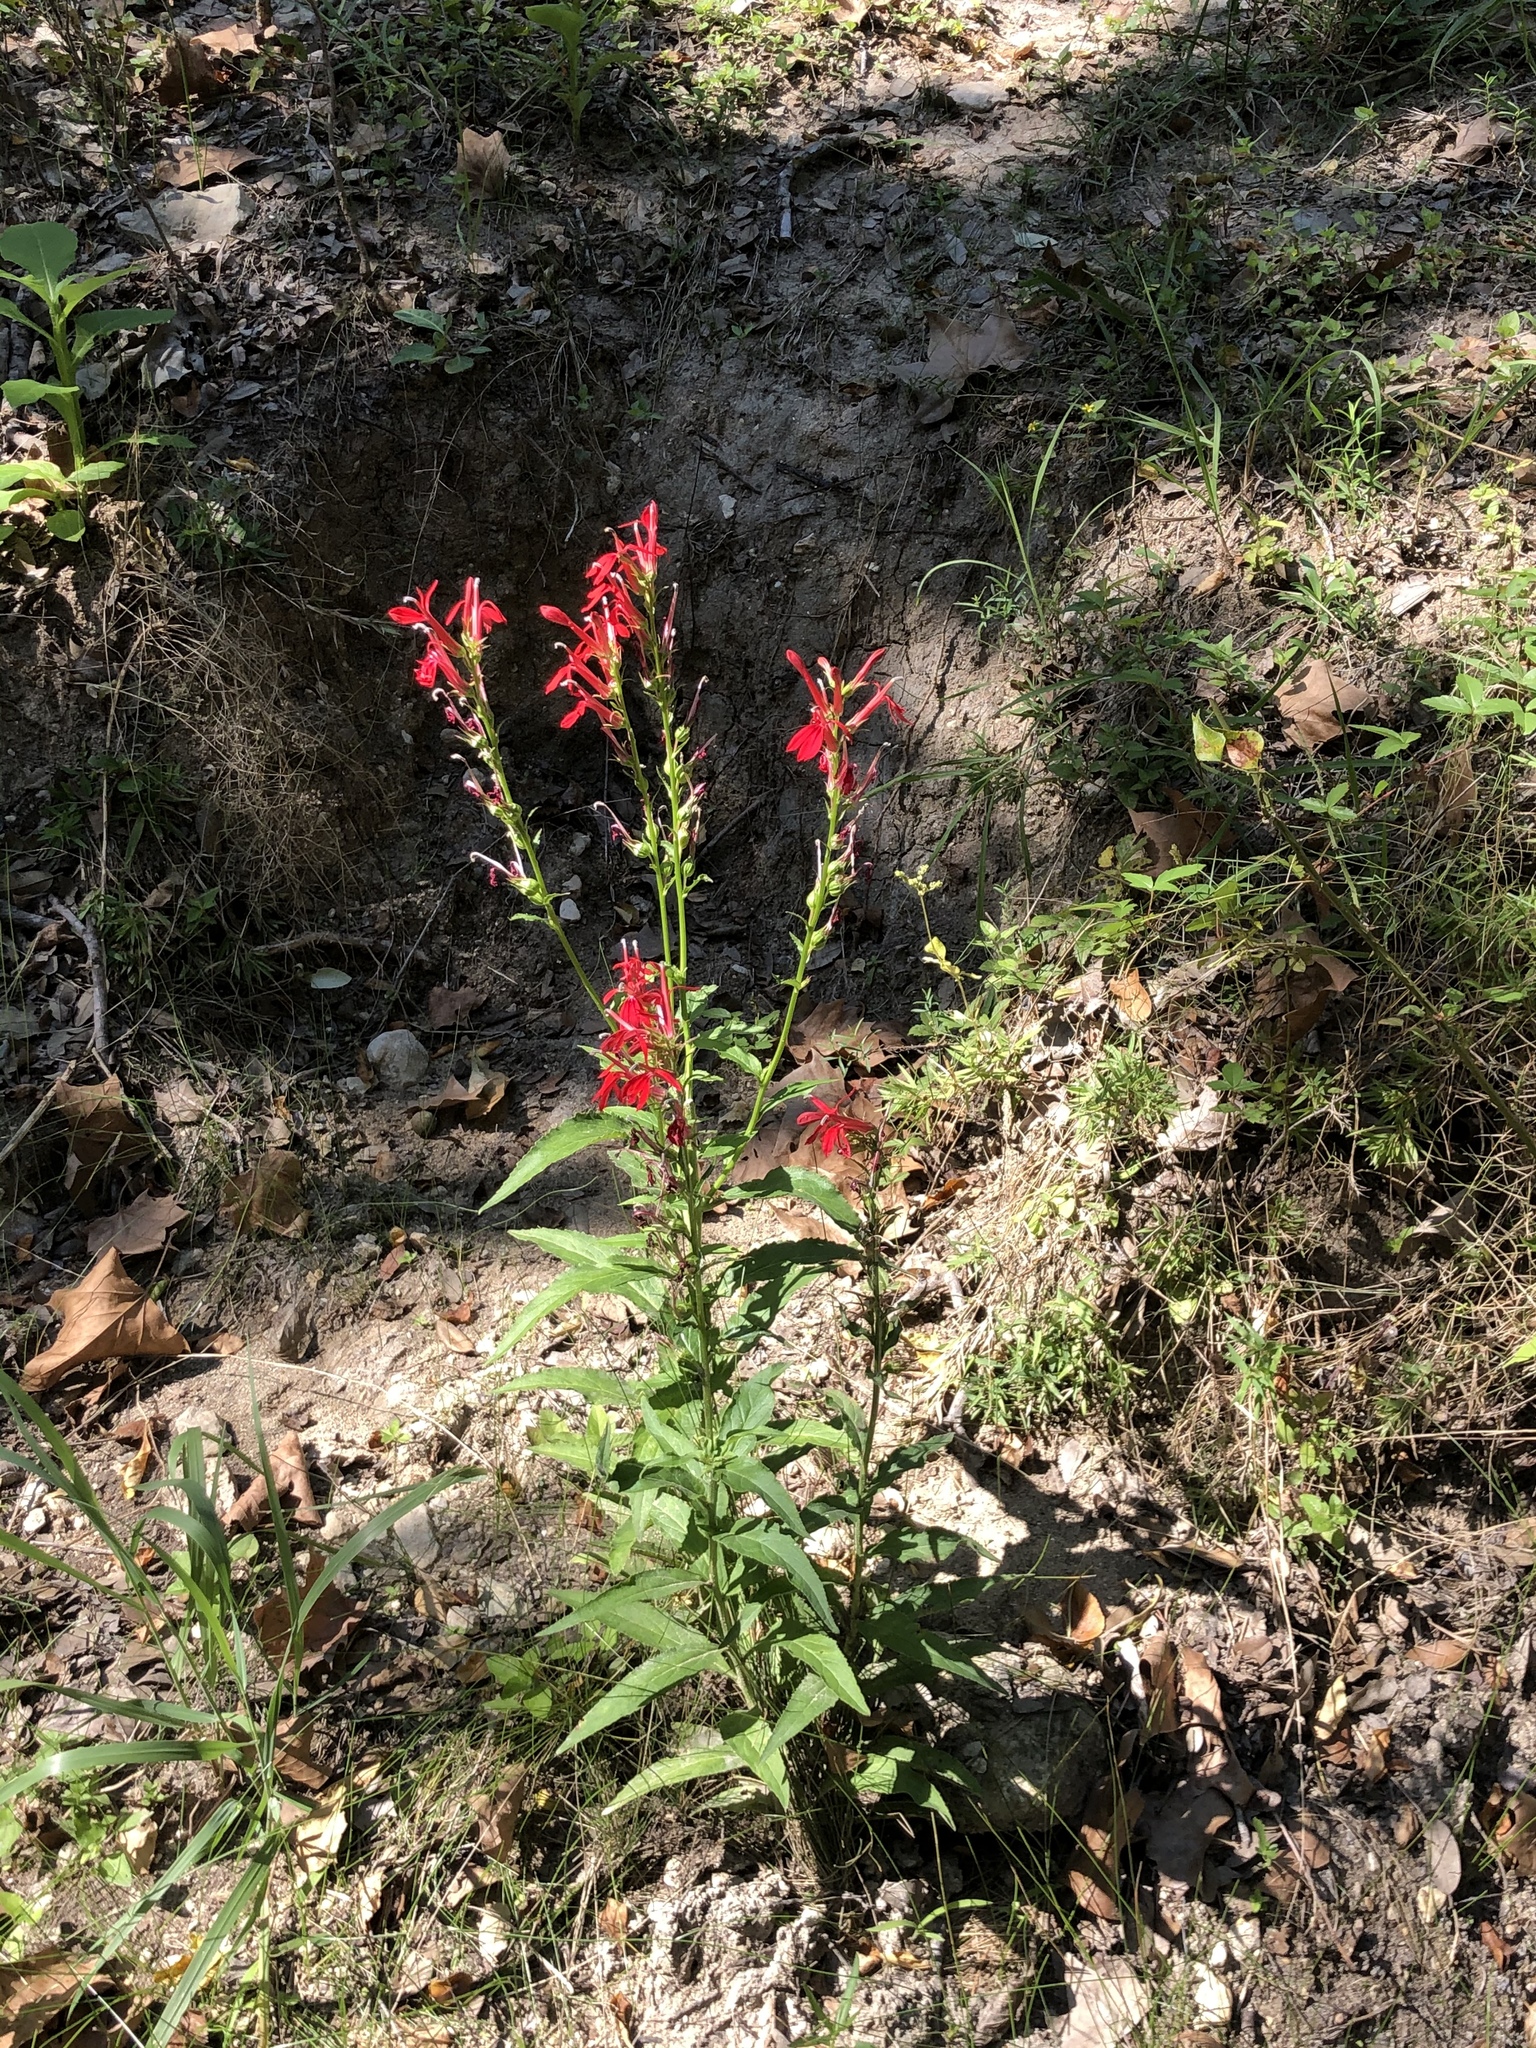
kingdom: Plantae
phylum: Tracheophyta
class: Magnoliopsida
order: Asterales
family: Campanulaceae
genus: Lobelia
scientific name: Lobelia cardinalis
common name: Cardinal flower
